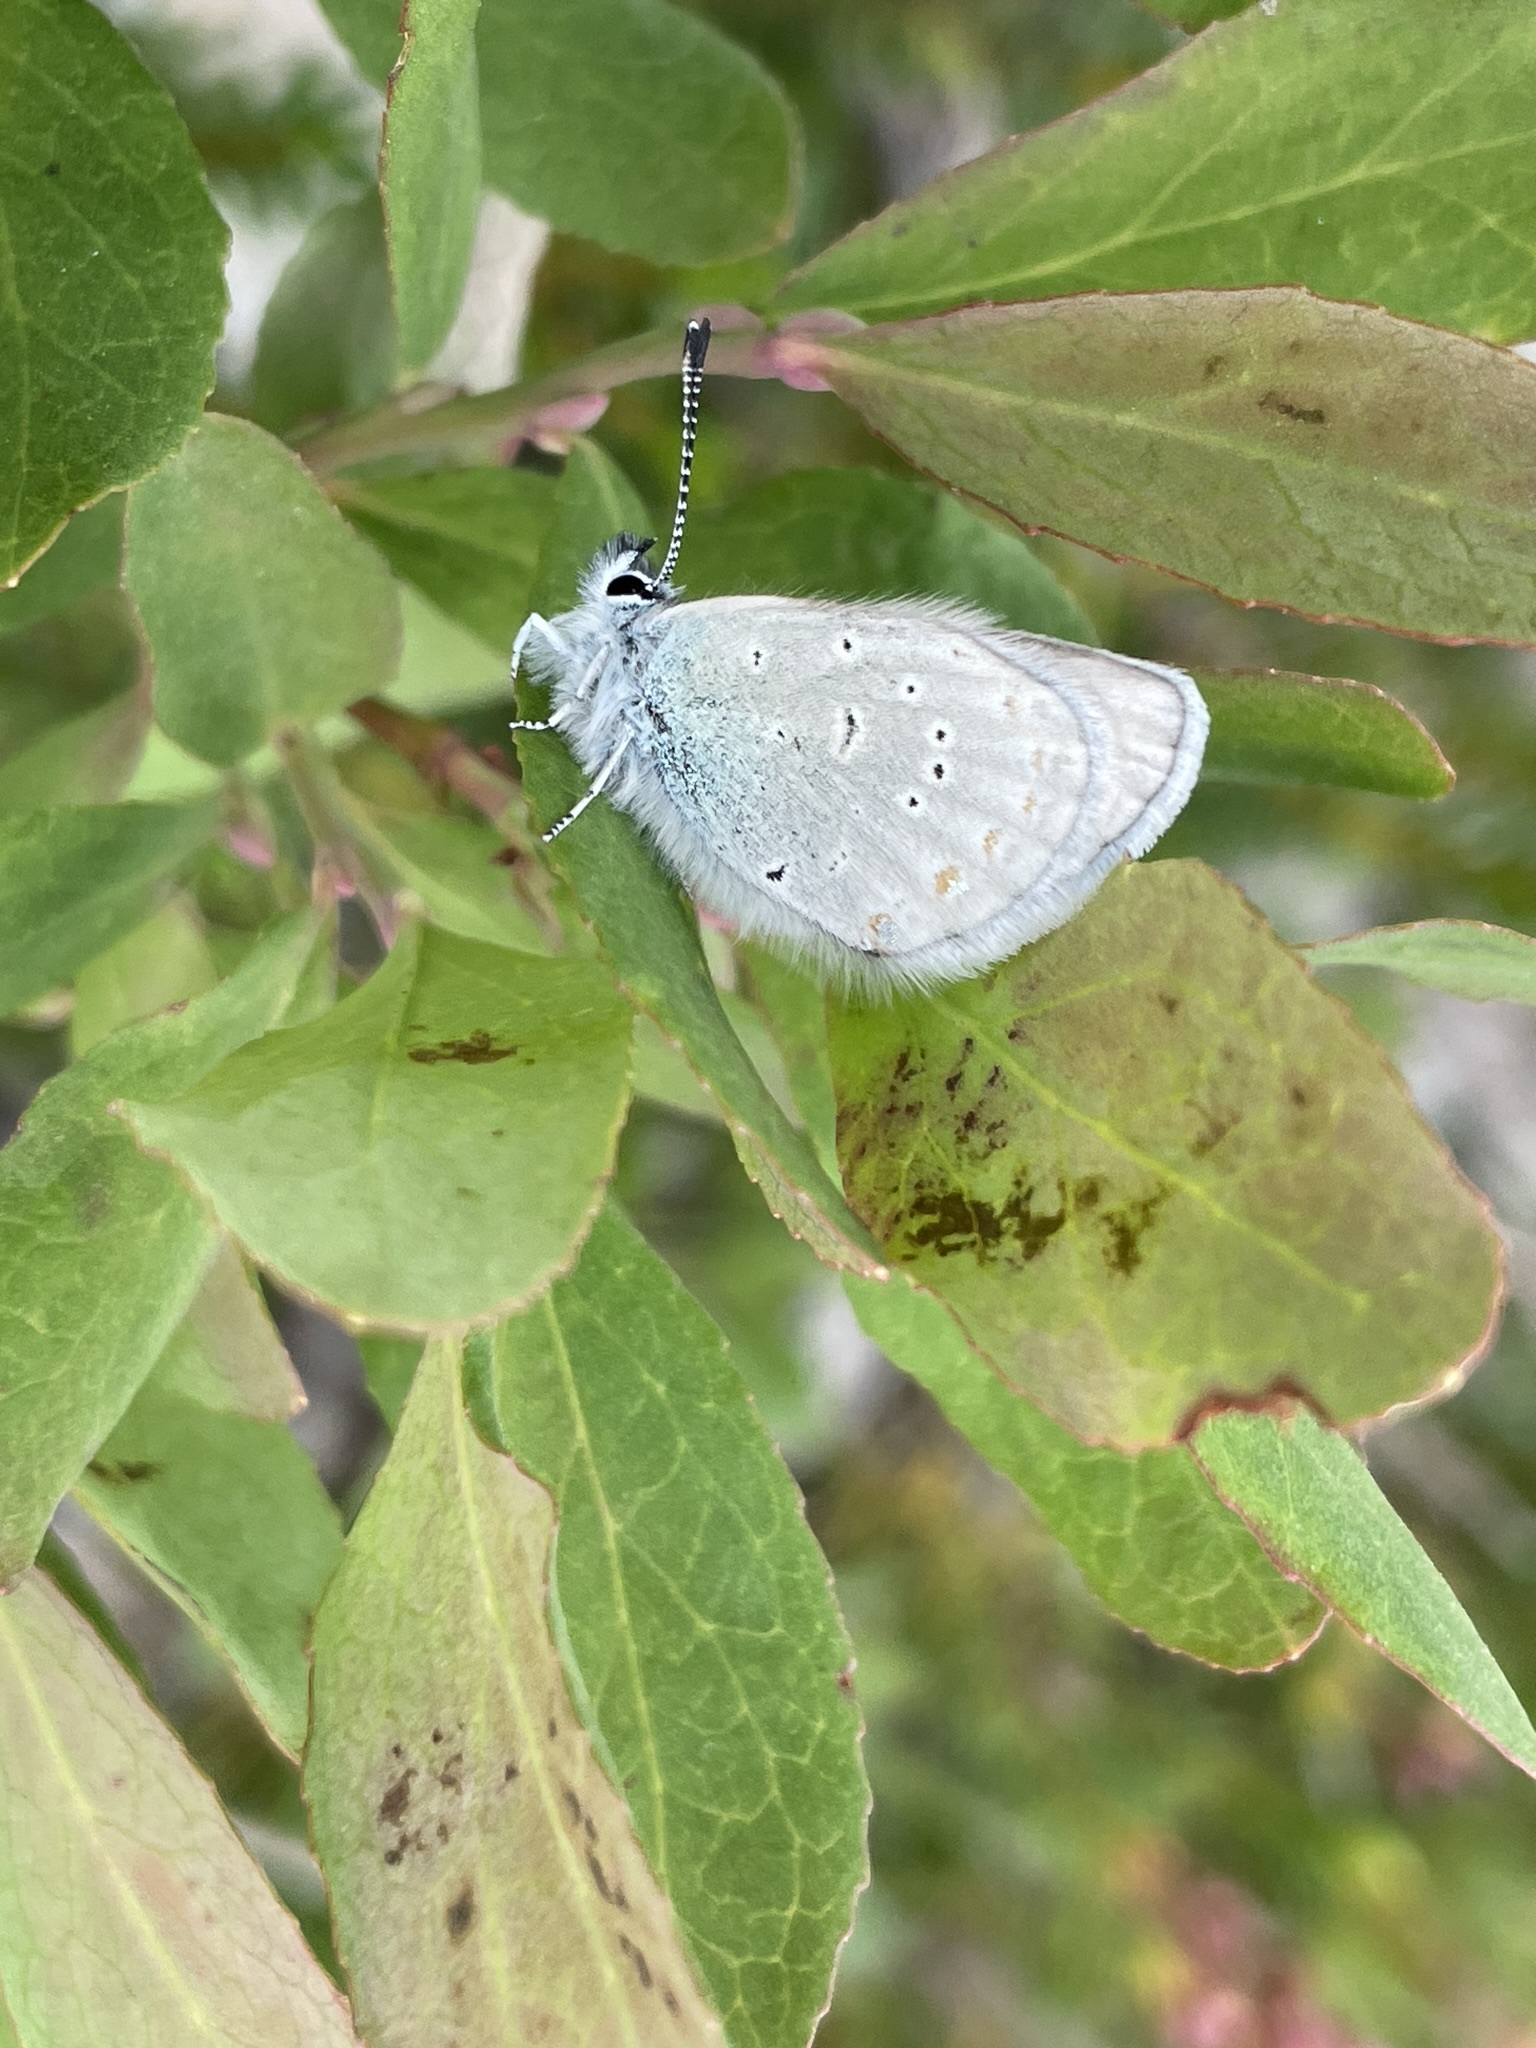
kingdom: Animalia
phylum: Arthropoda
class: Insecta
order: Lepidoptera
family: Lycaenidae
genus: Lycaeides
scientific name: Lycaeides anna
